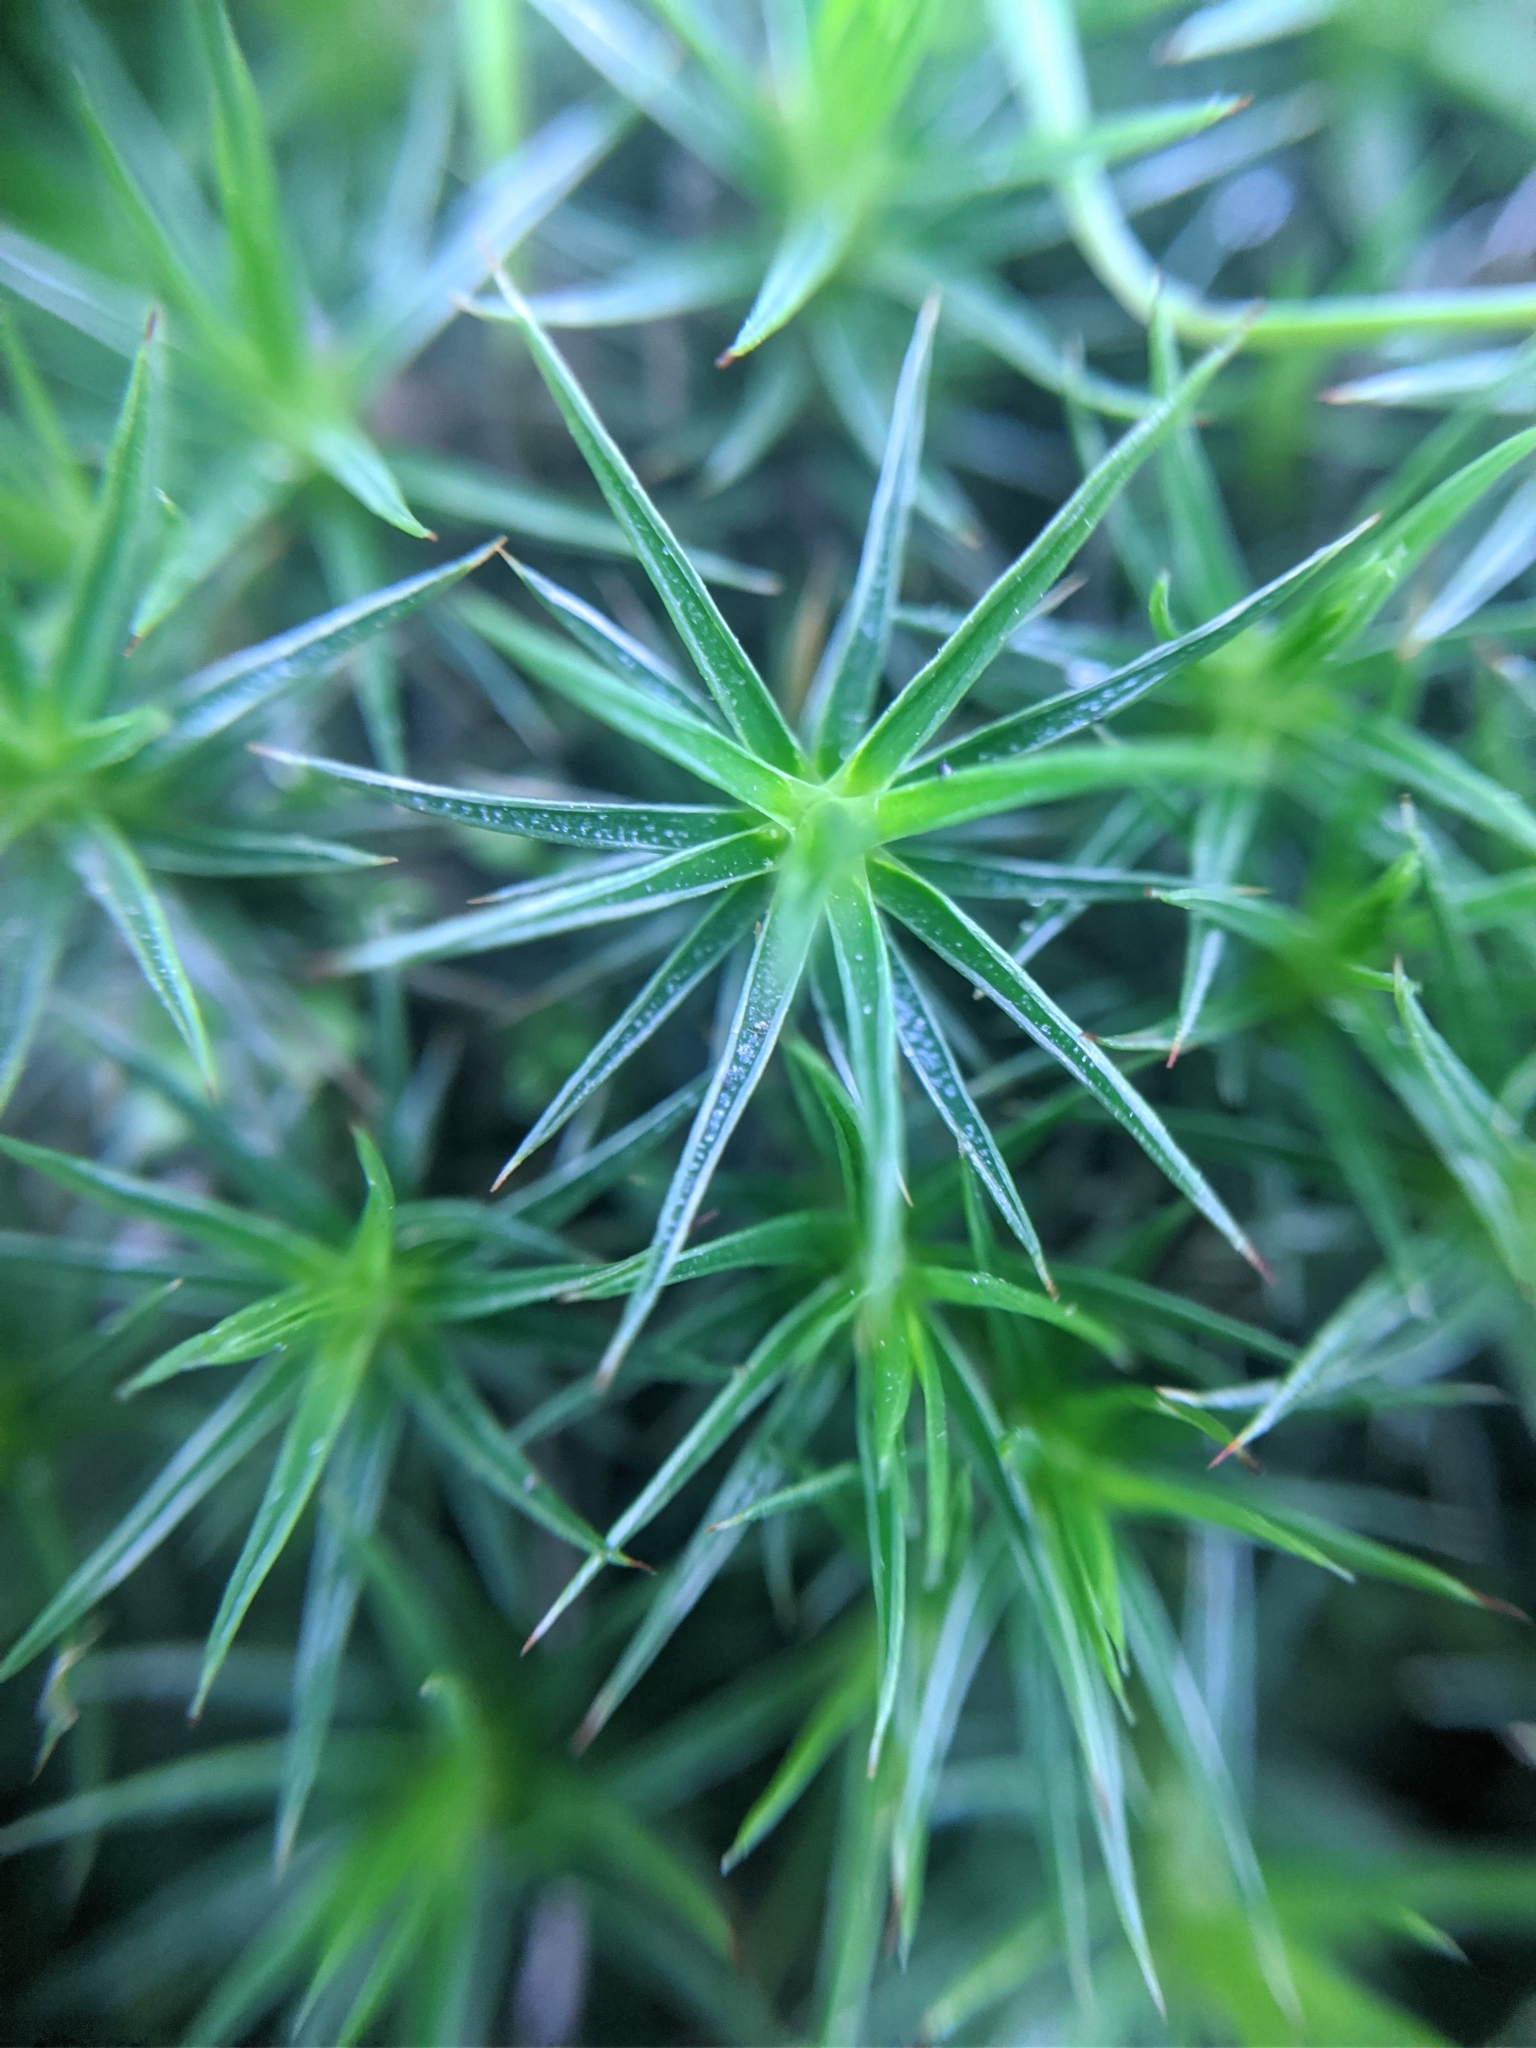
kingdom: Plantae
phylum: Bryophyta
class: Polytrichopsida
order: Polytrichales
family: Polytrichaceae
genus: Polytrichum
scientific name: Polytrichum juniperinum
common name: Juniper haircap moss
